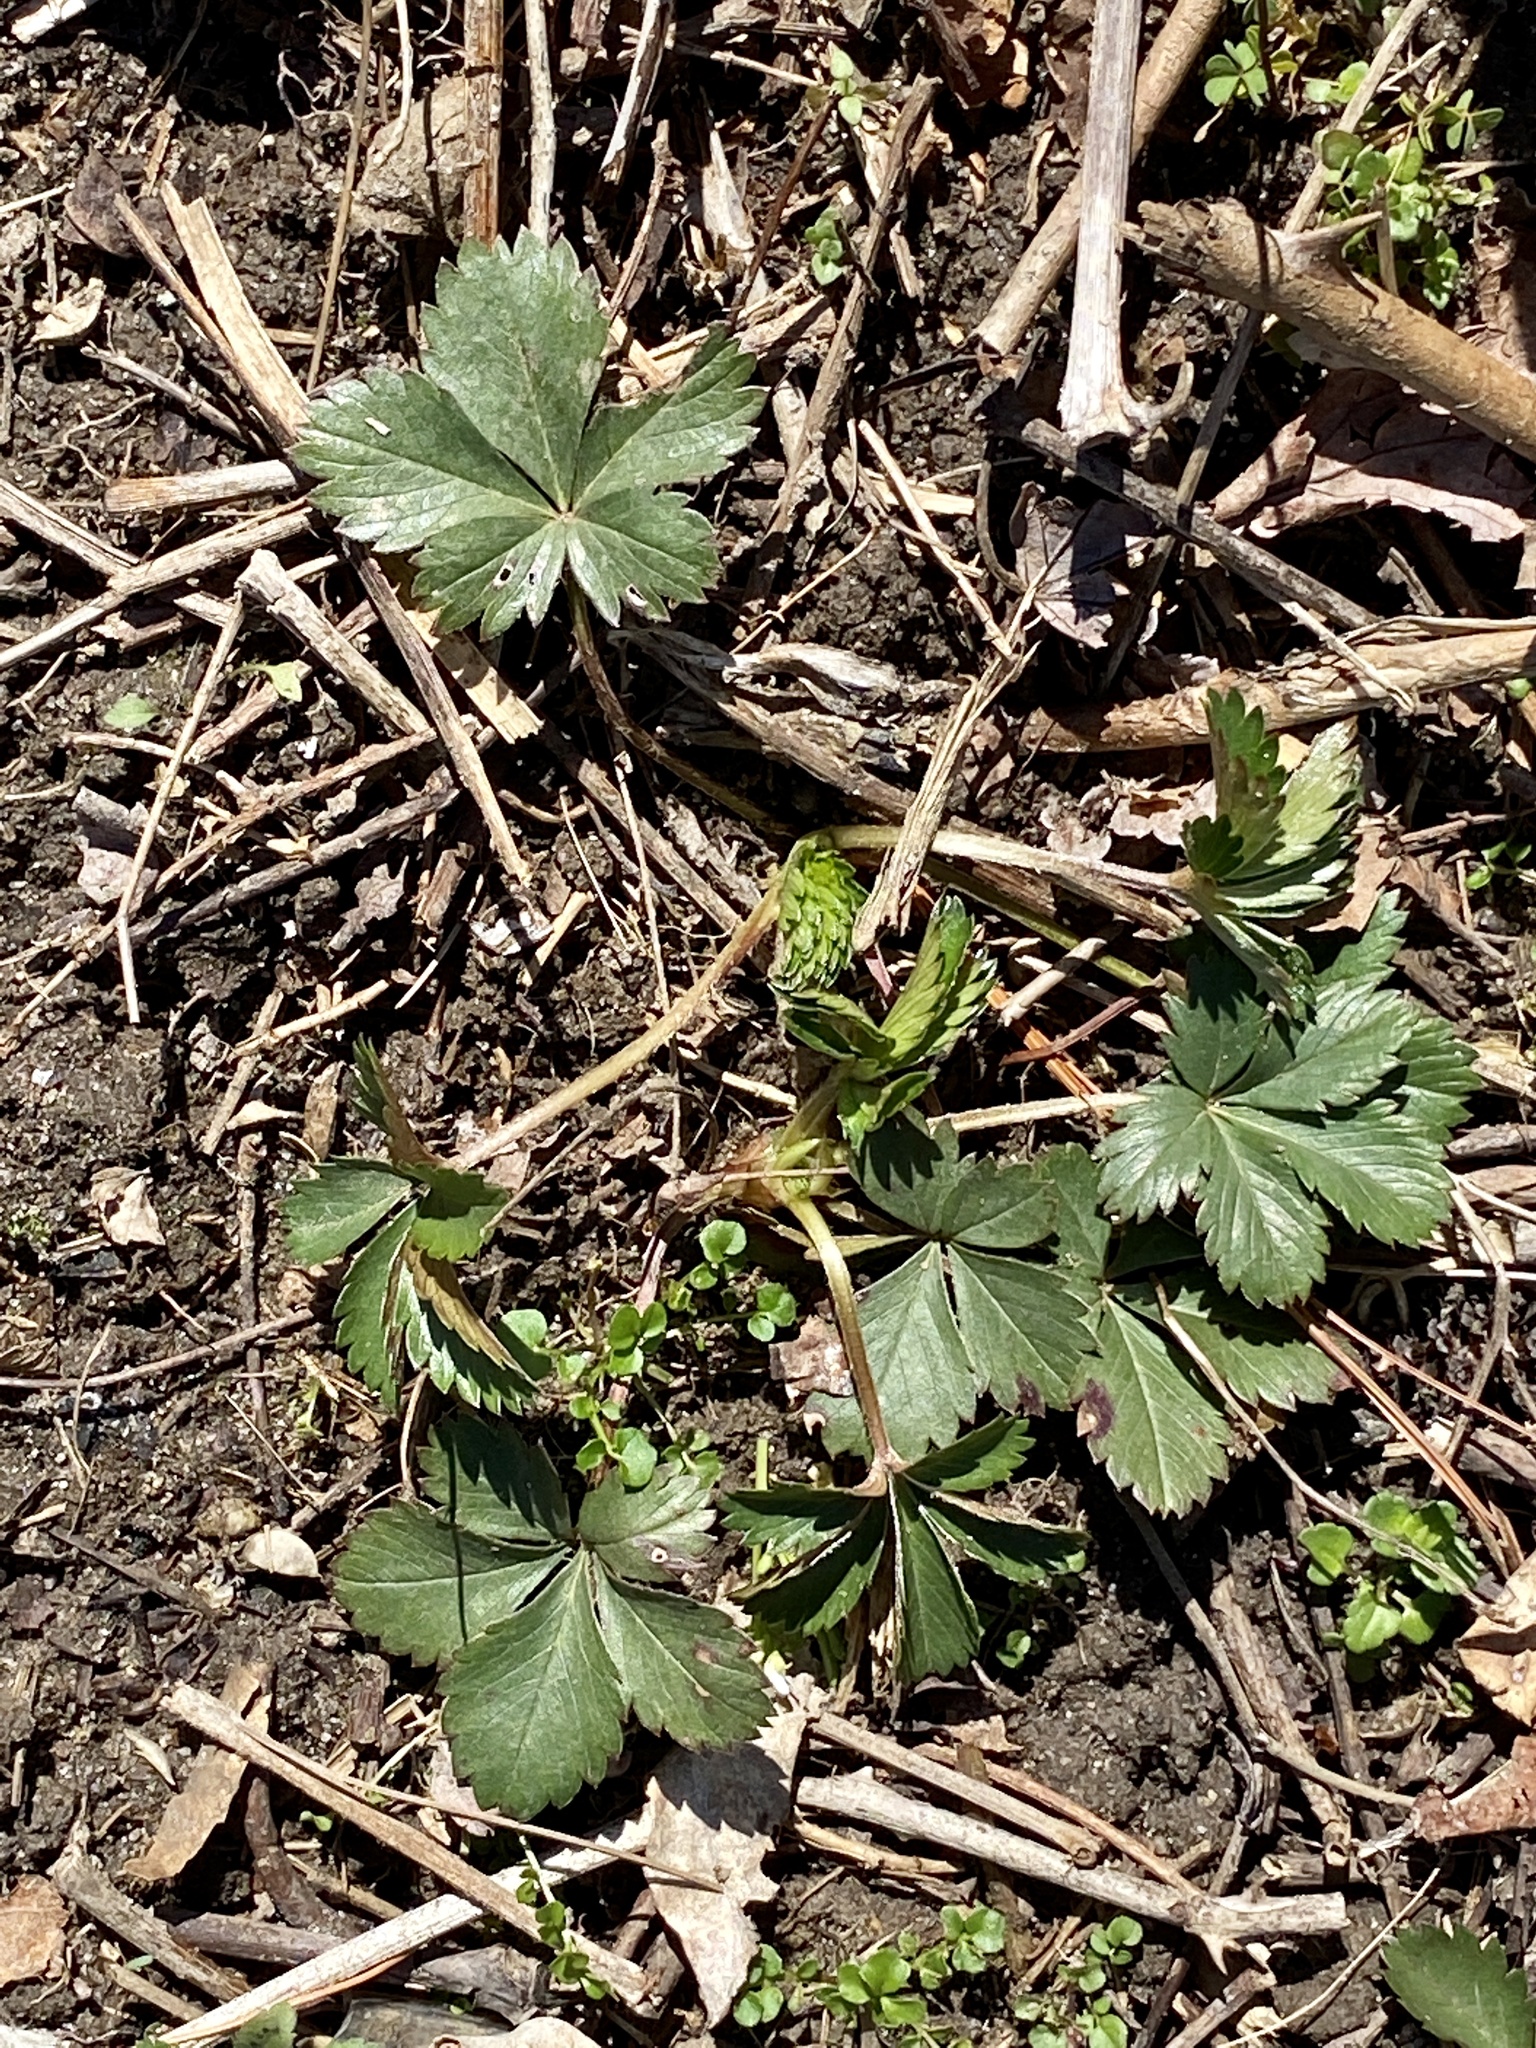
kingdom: Plantae
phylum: Tracheophyta
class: Magnoliopsida
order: Rosales
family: Rosaceae
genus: Potentilla
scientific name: Potentilla canadensis
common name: Canada cinquefoil
